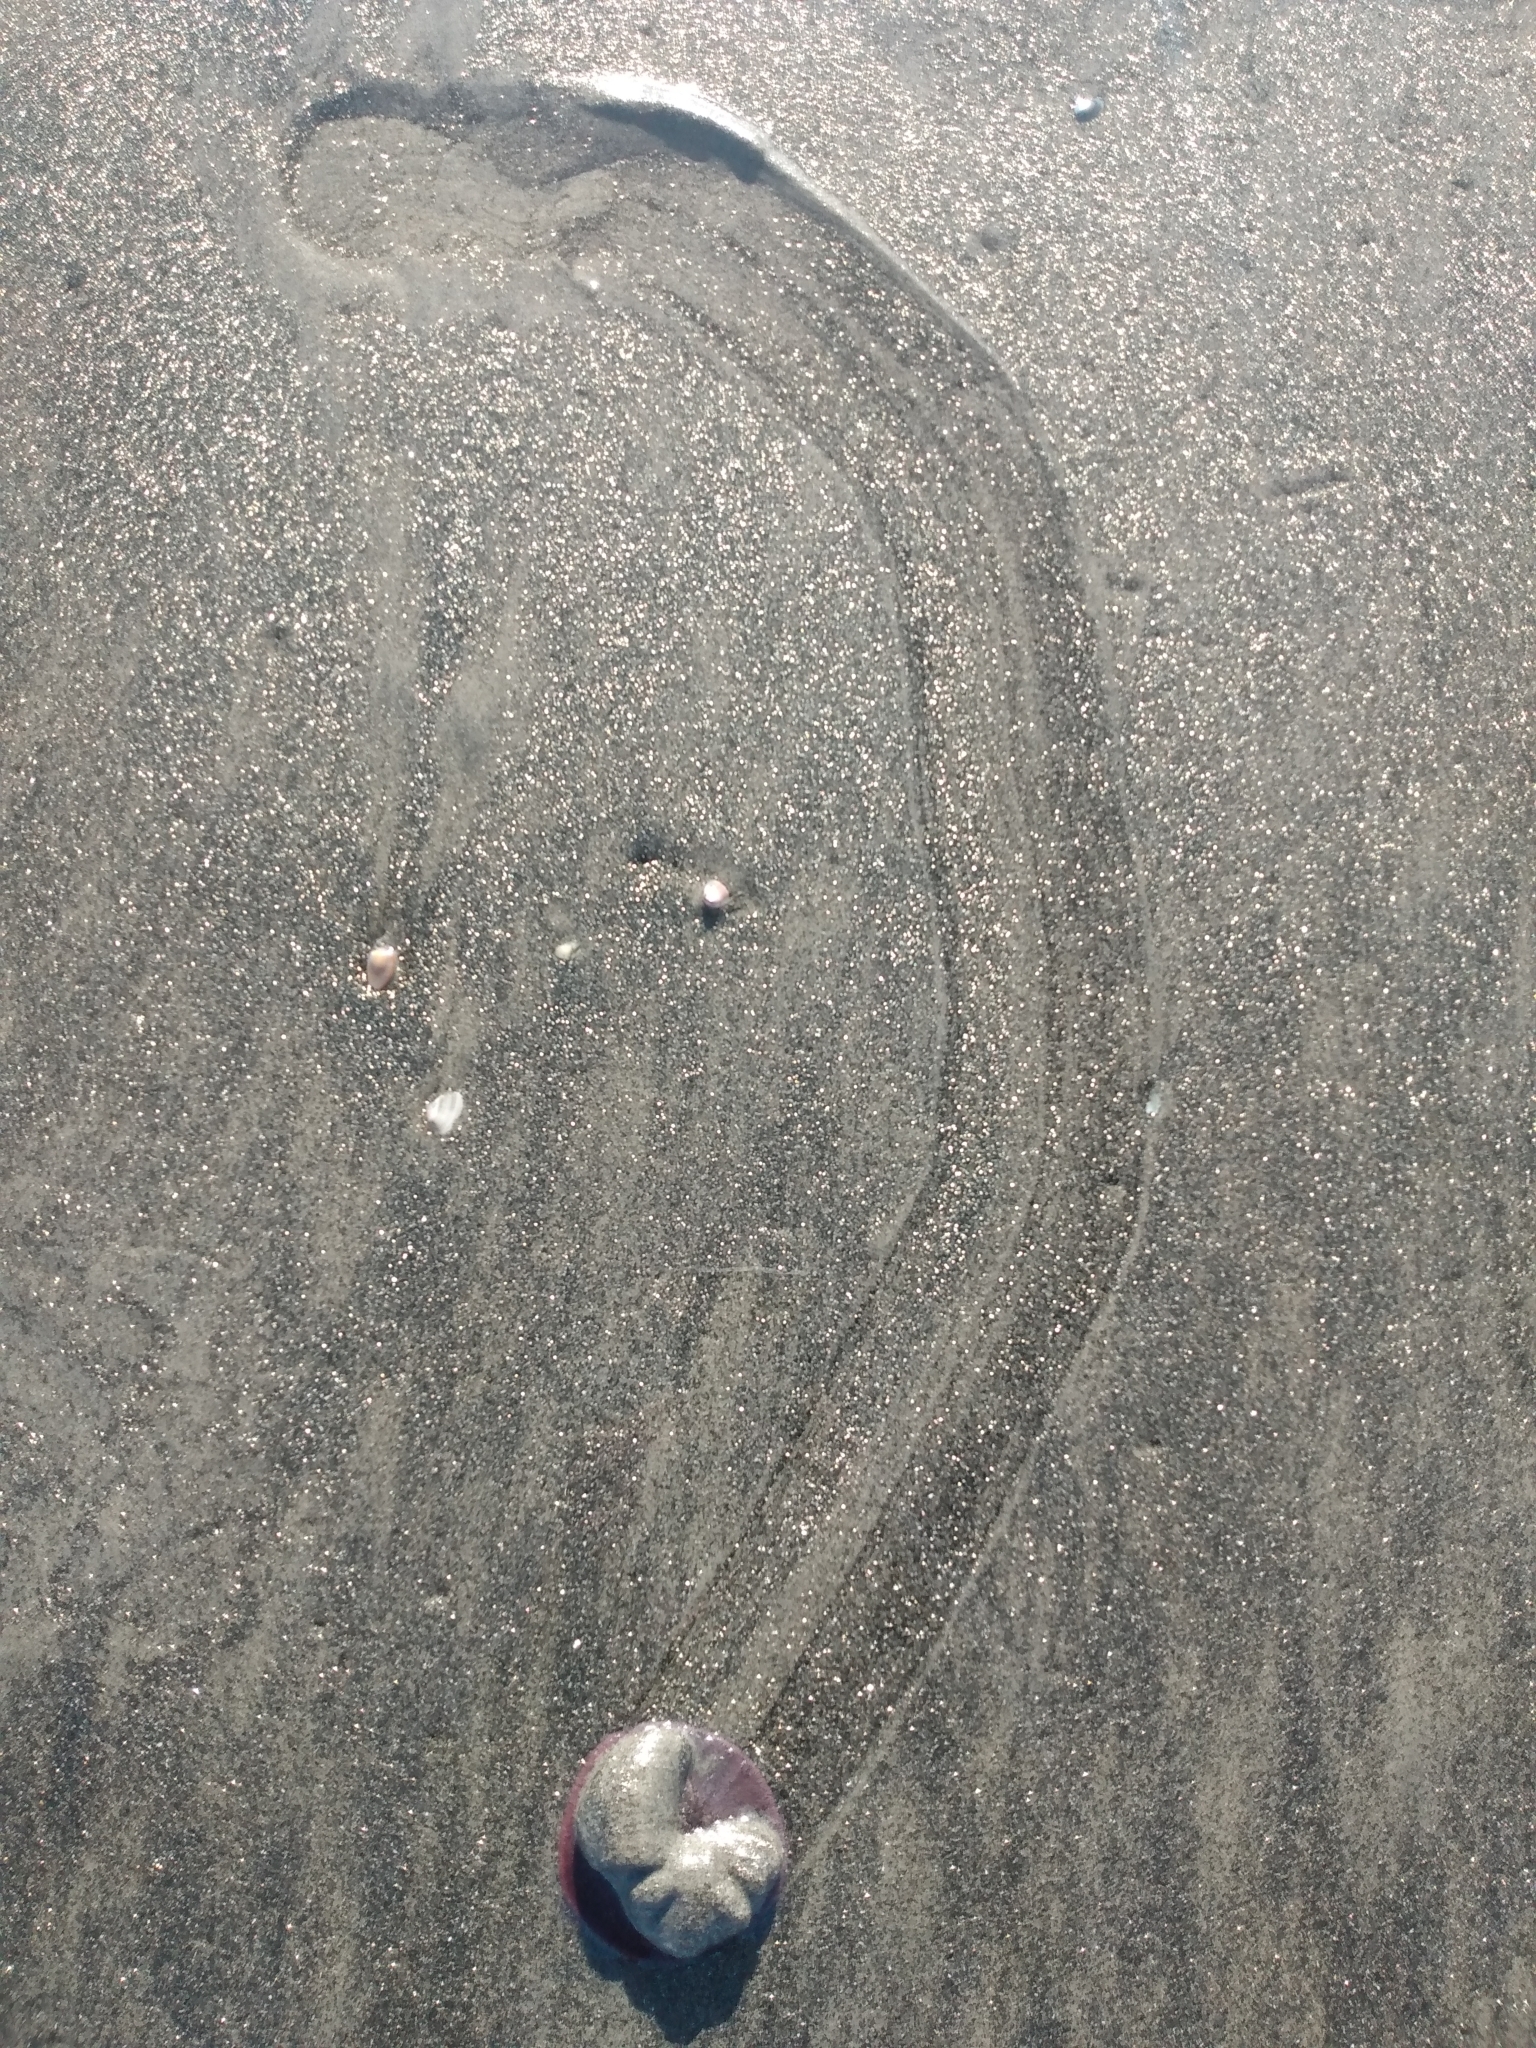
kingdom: Animalia
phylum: Echinodermata
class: Echinoidea
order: Echinolampadacea
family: Dendrasteridae
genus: Dendraster
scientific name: Dendraster excentricus
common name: Eccentric sand dollar sea urchin
